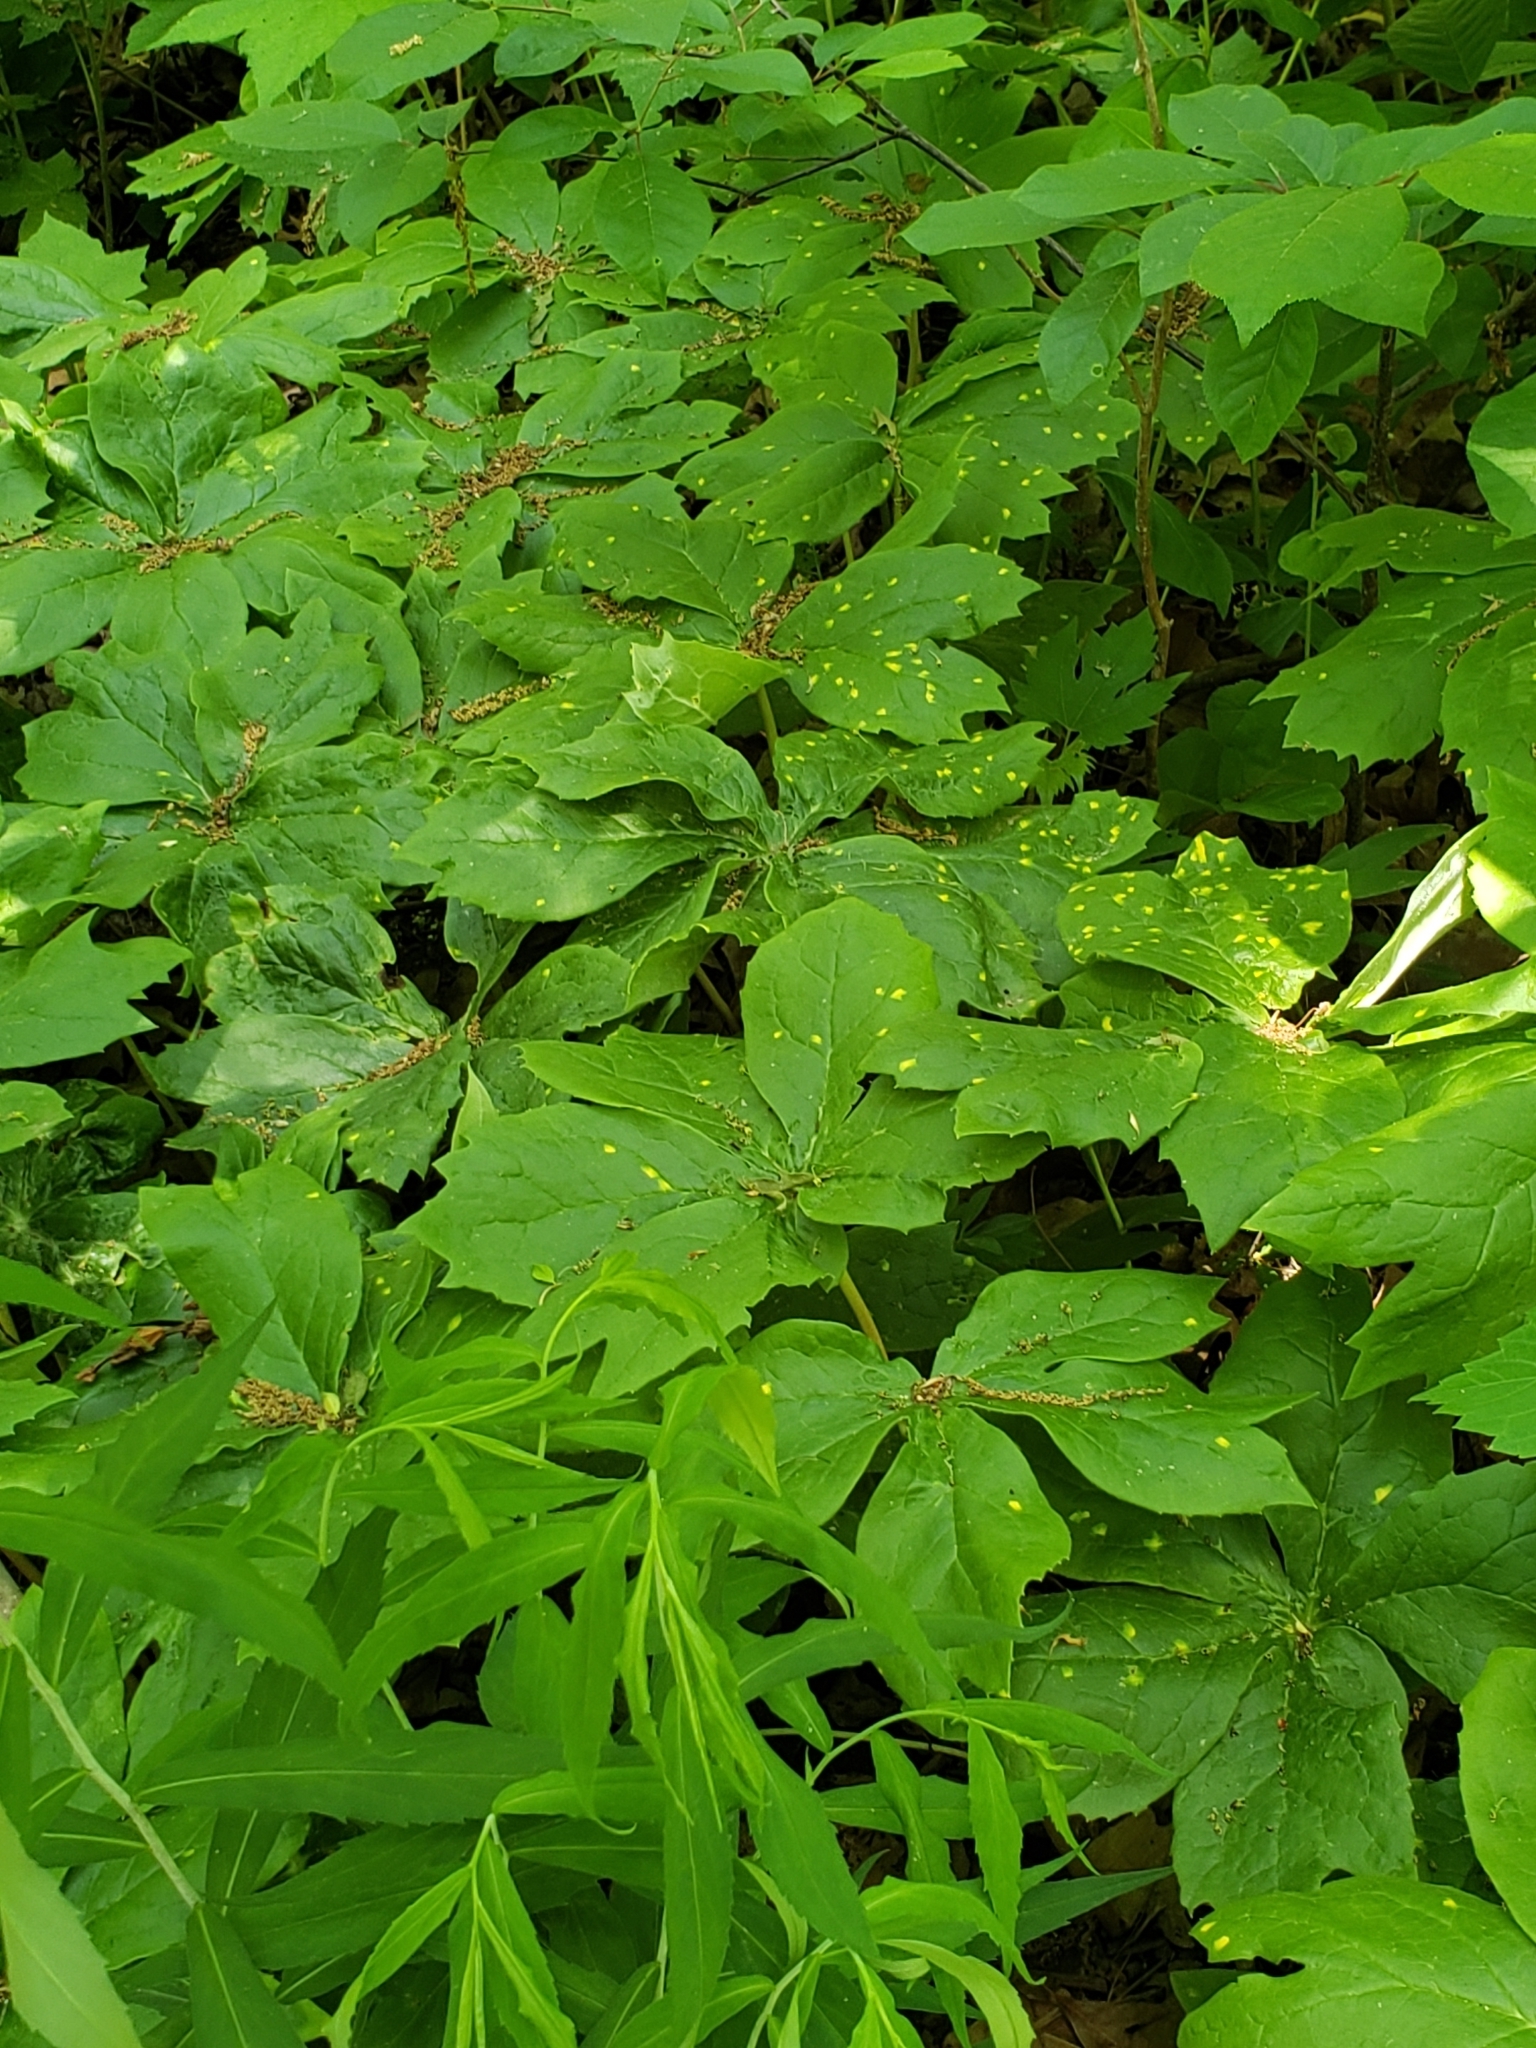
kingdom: Plantae
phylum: Tracheophyta
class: Magnoliopsida
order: Ranunculales
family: Berberidaceae
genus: Podophyllum
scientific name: Podophyllum peltatum
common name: Wild mandrake
